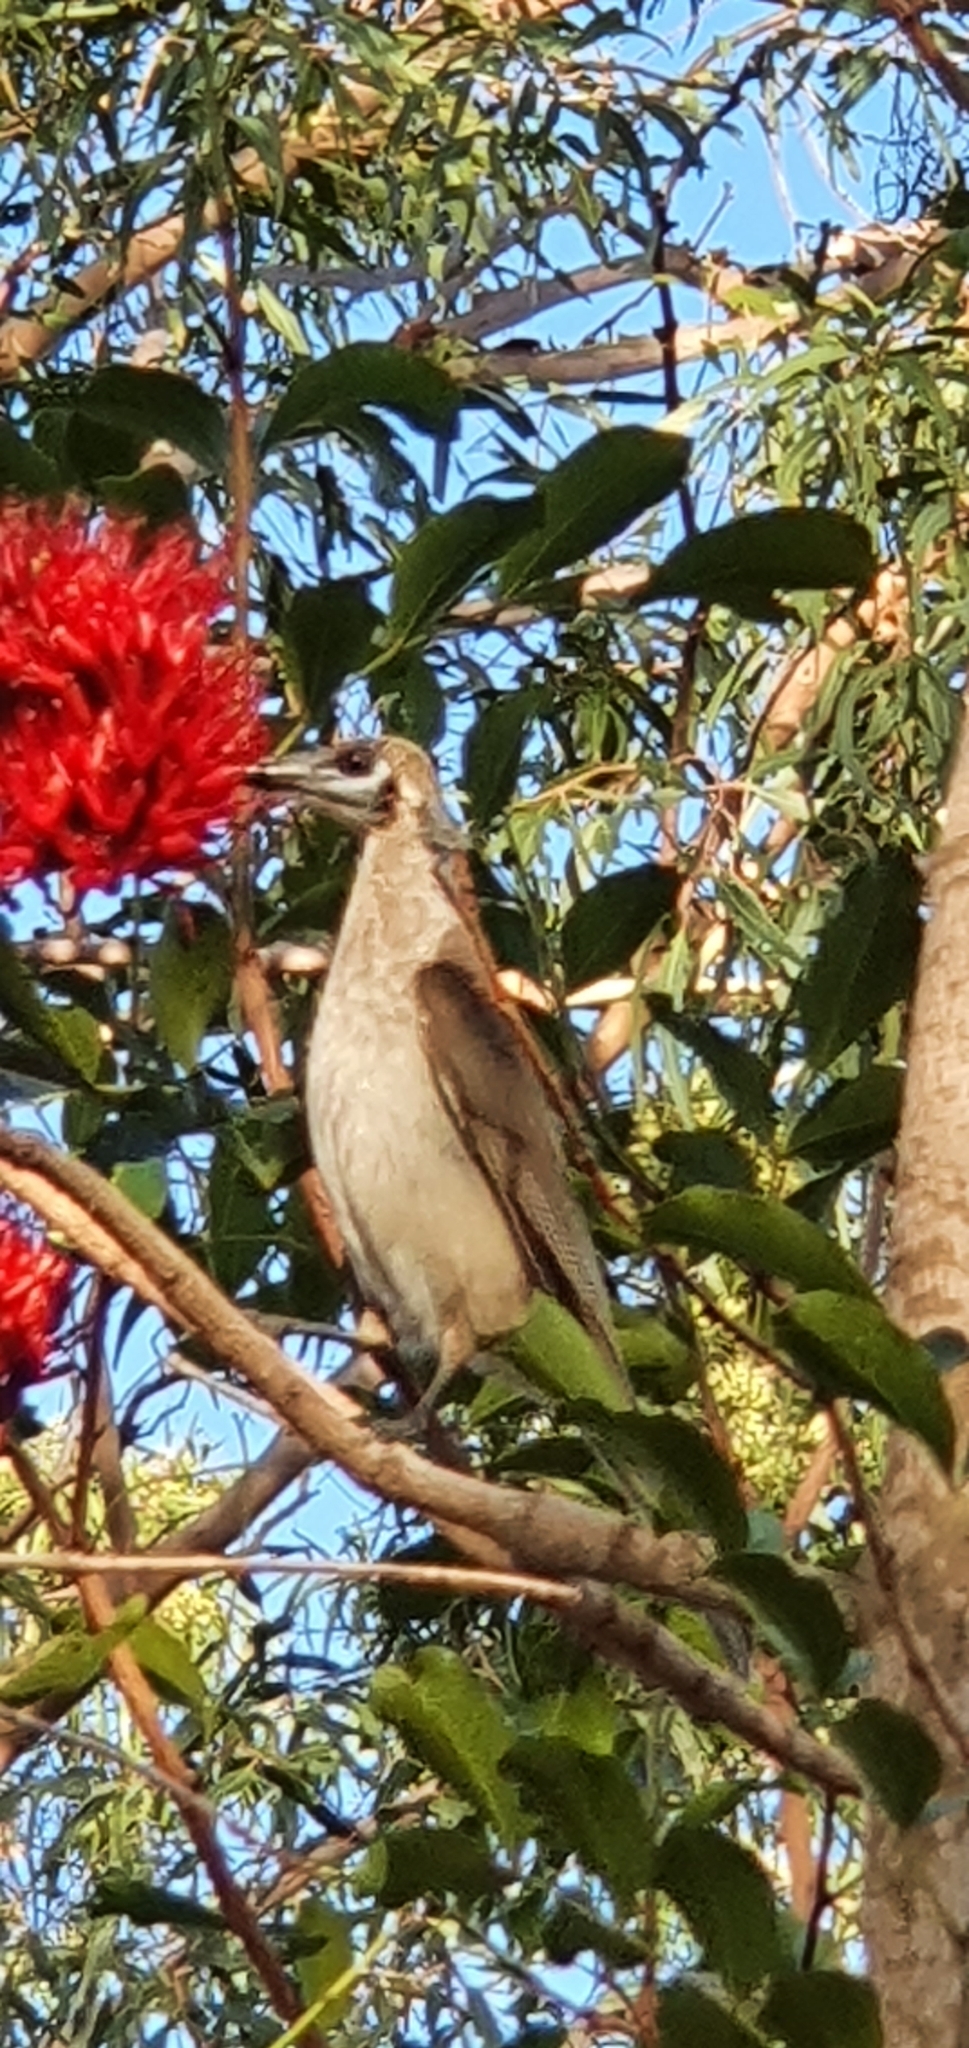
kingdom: Animalia
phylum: Chordata
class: Aves
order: Passeriformes
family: Meliphagidae
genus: Philemon
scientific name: Philemon citreogularis
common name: Little friarbird
